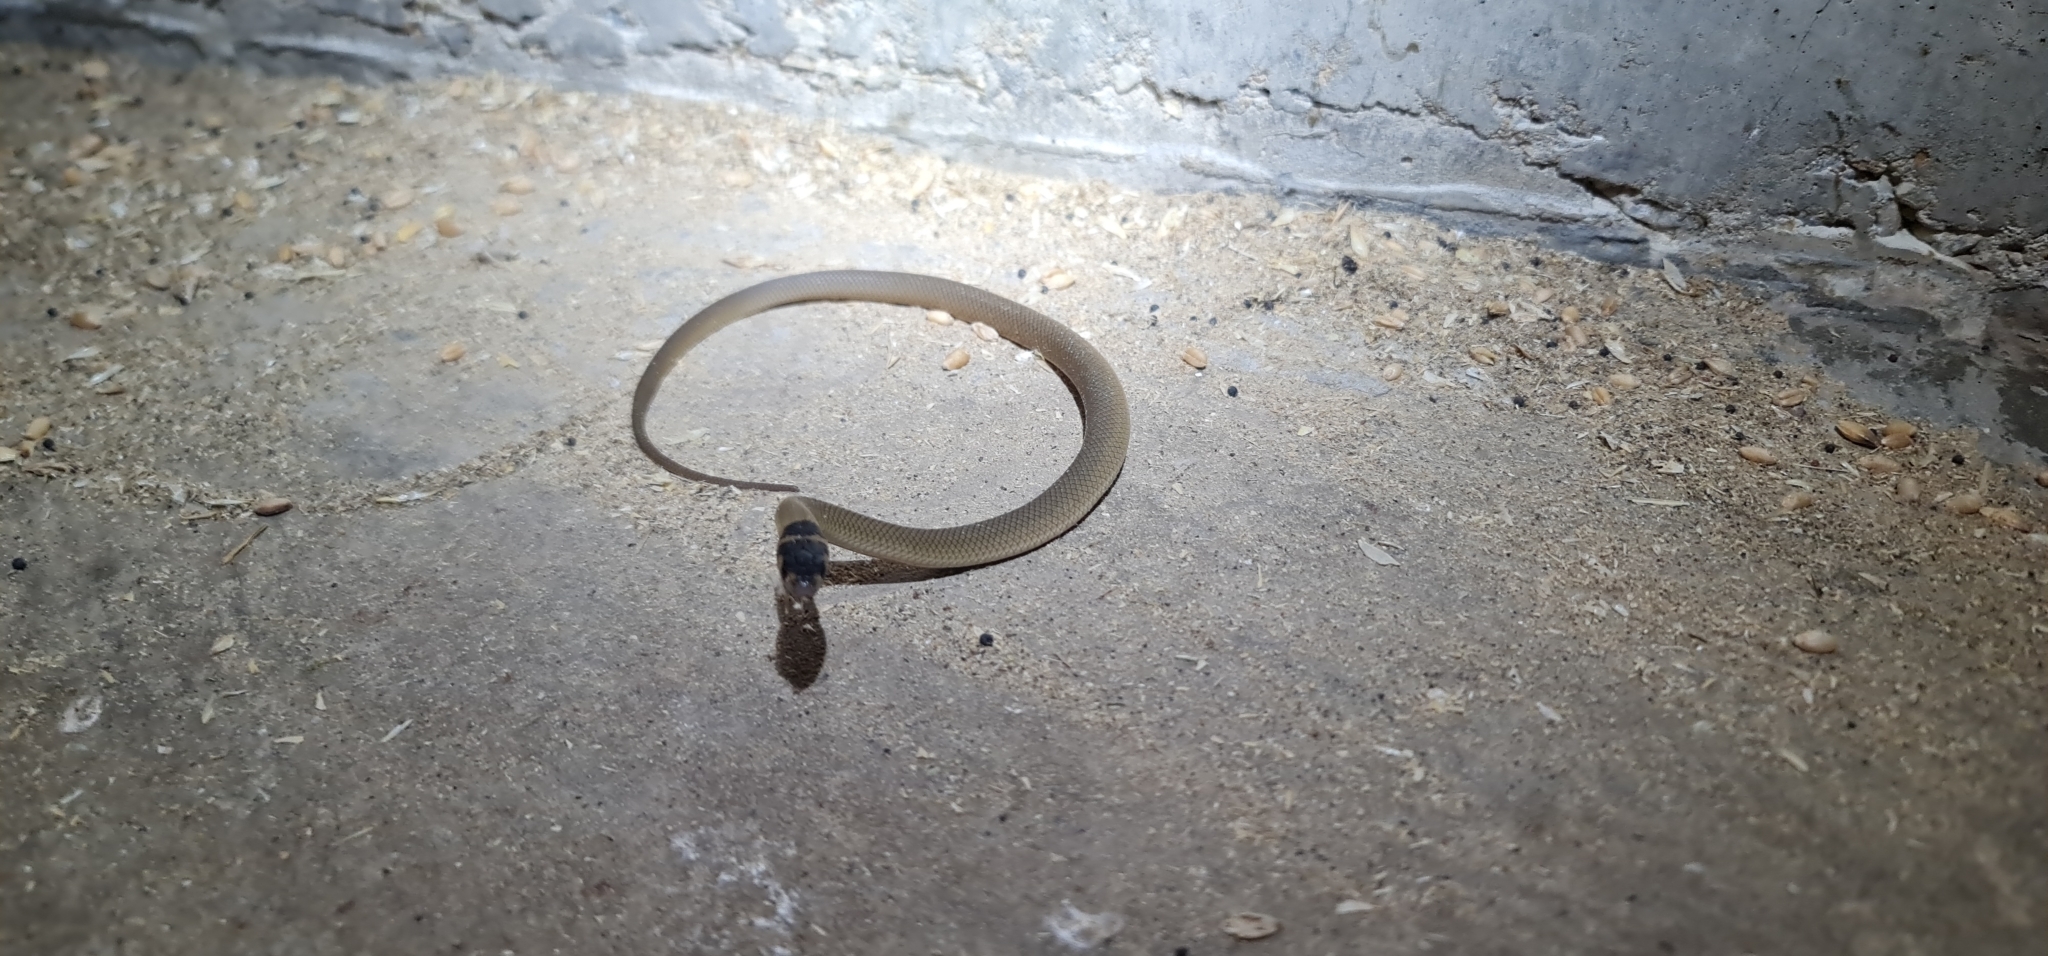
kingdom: Animalia
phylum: Chordata
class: Squamata
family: Elapidae
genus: Pseudonaja
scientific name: Pseudonaja textilis
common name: Eastern brown snake
